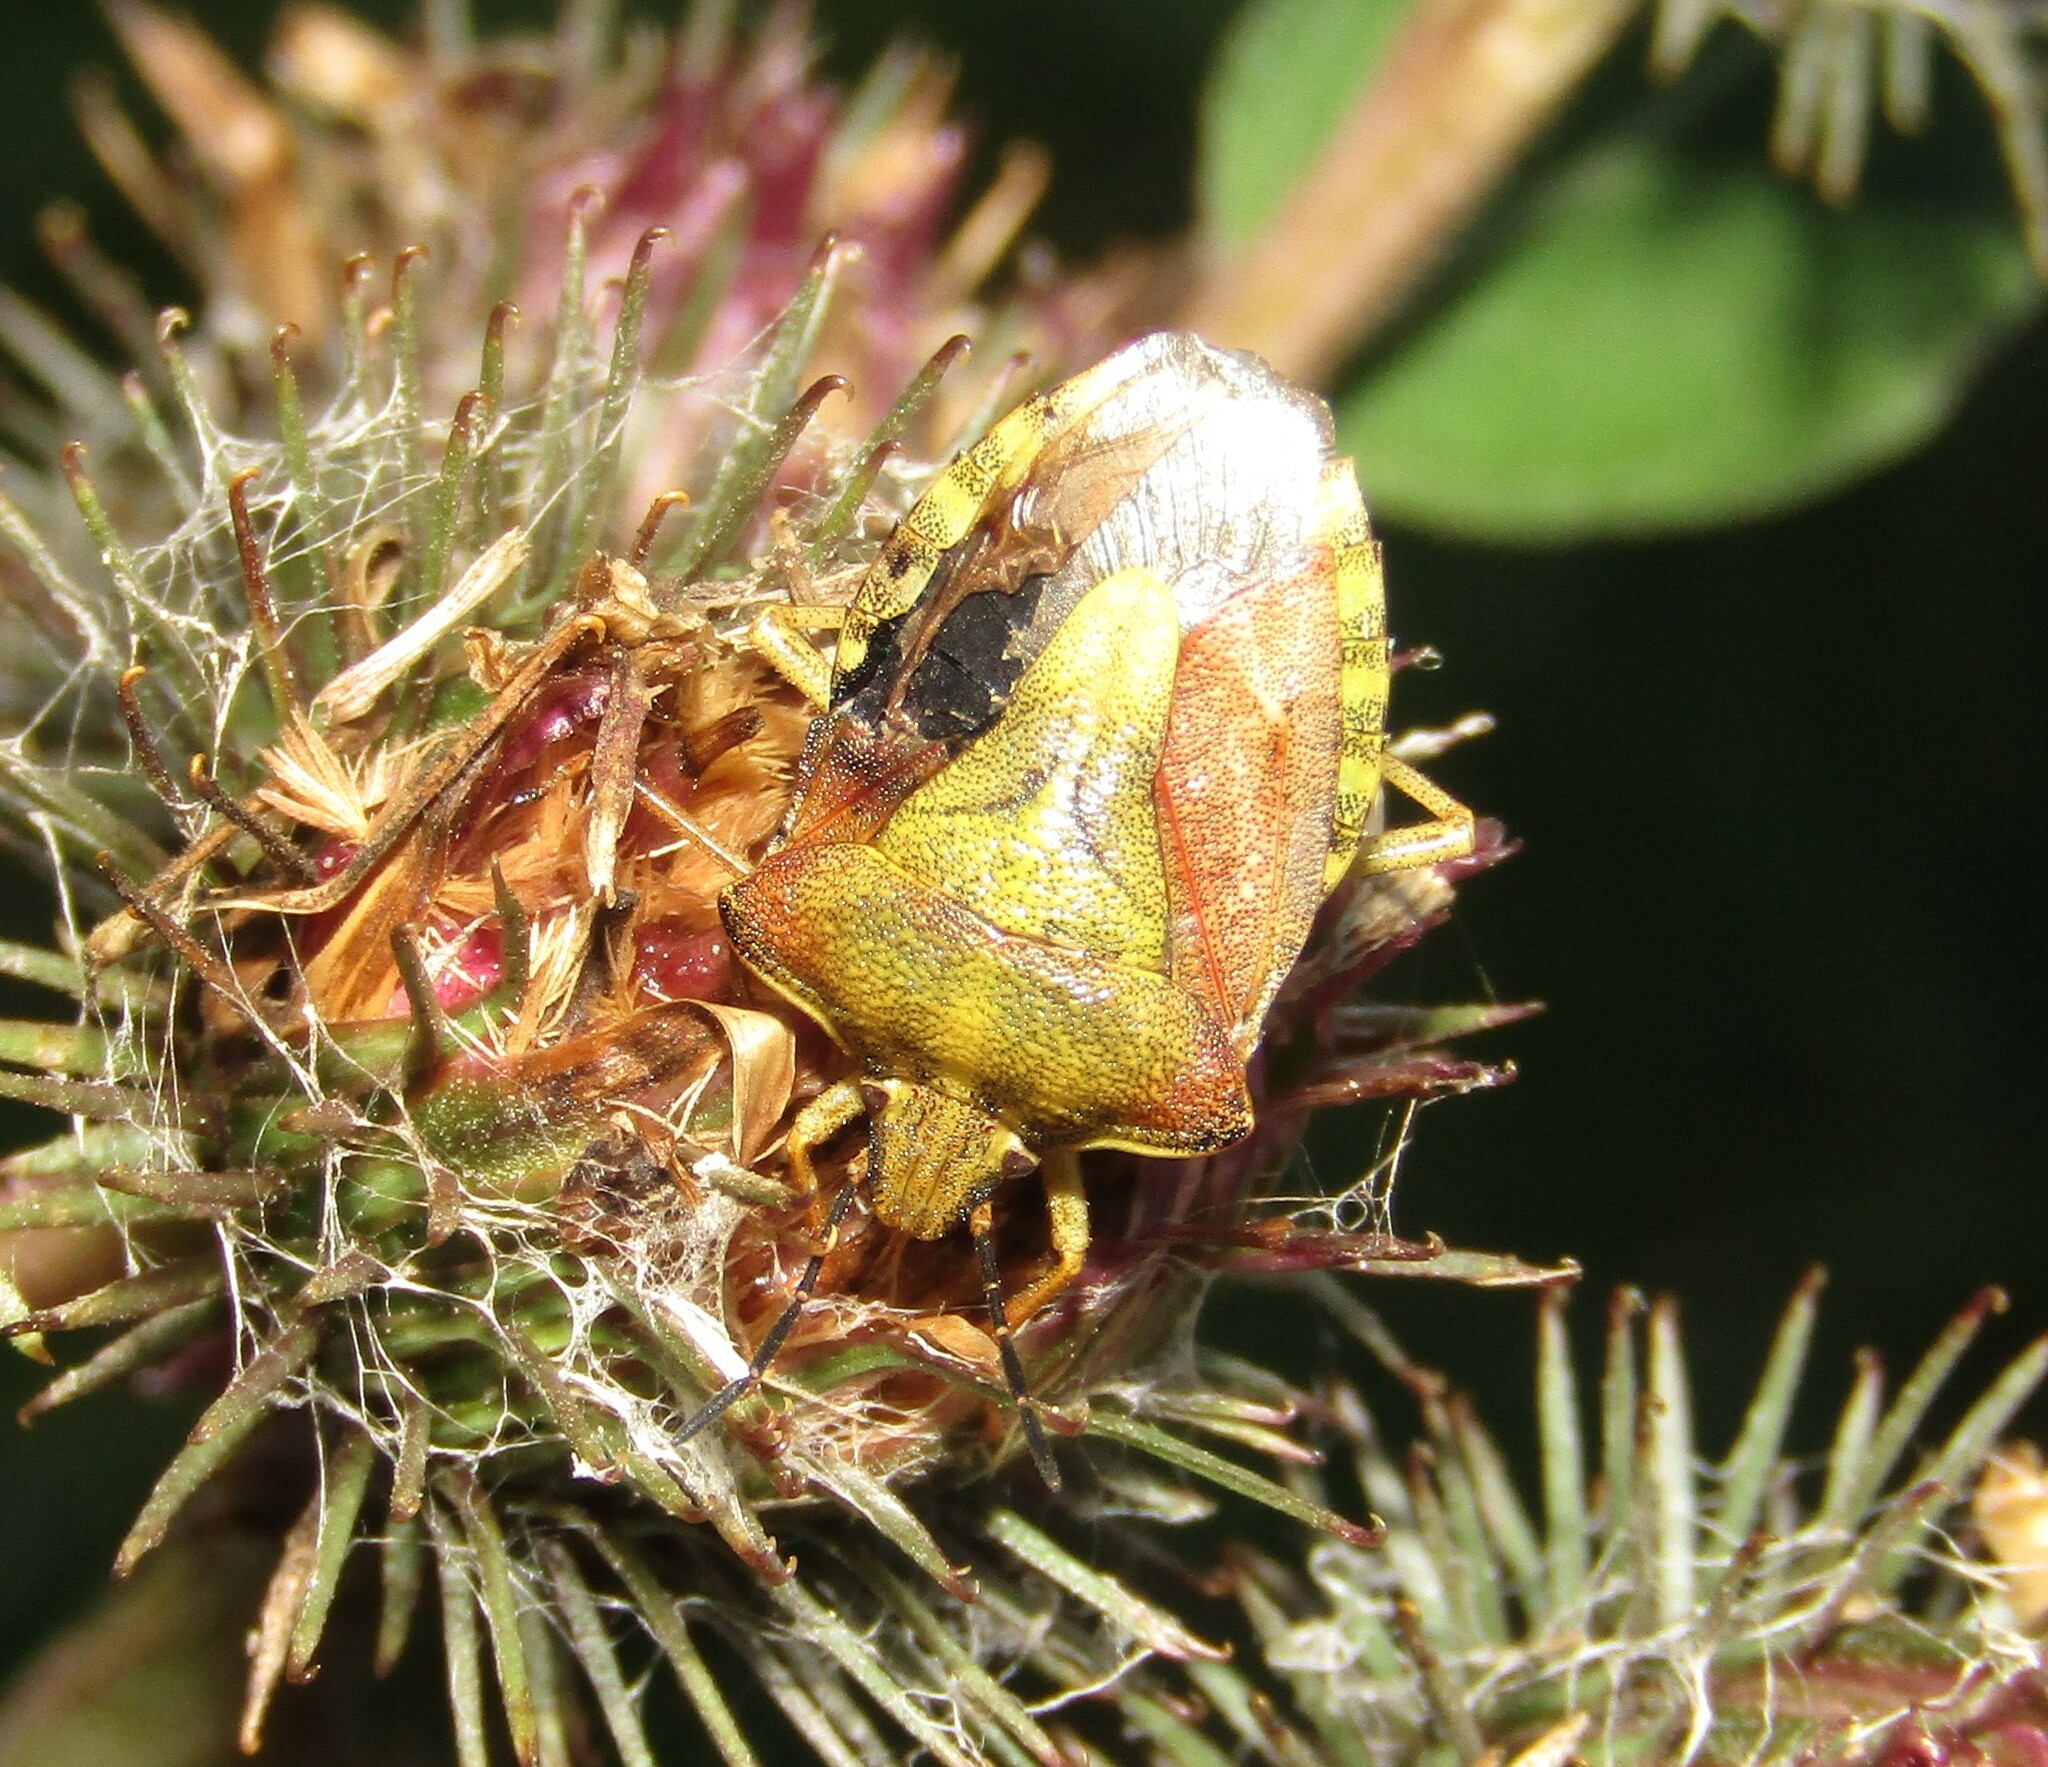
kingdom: Animalia
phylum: Arthropoda
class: Insecta
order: Hemiptera
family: Pentatomidae
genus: Carpocoris
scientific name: Carpocoris purpureipennis
